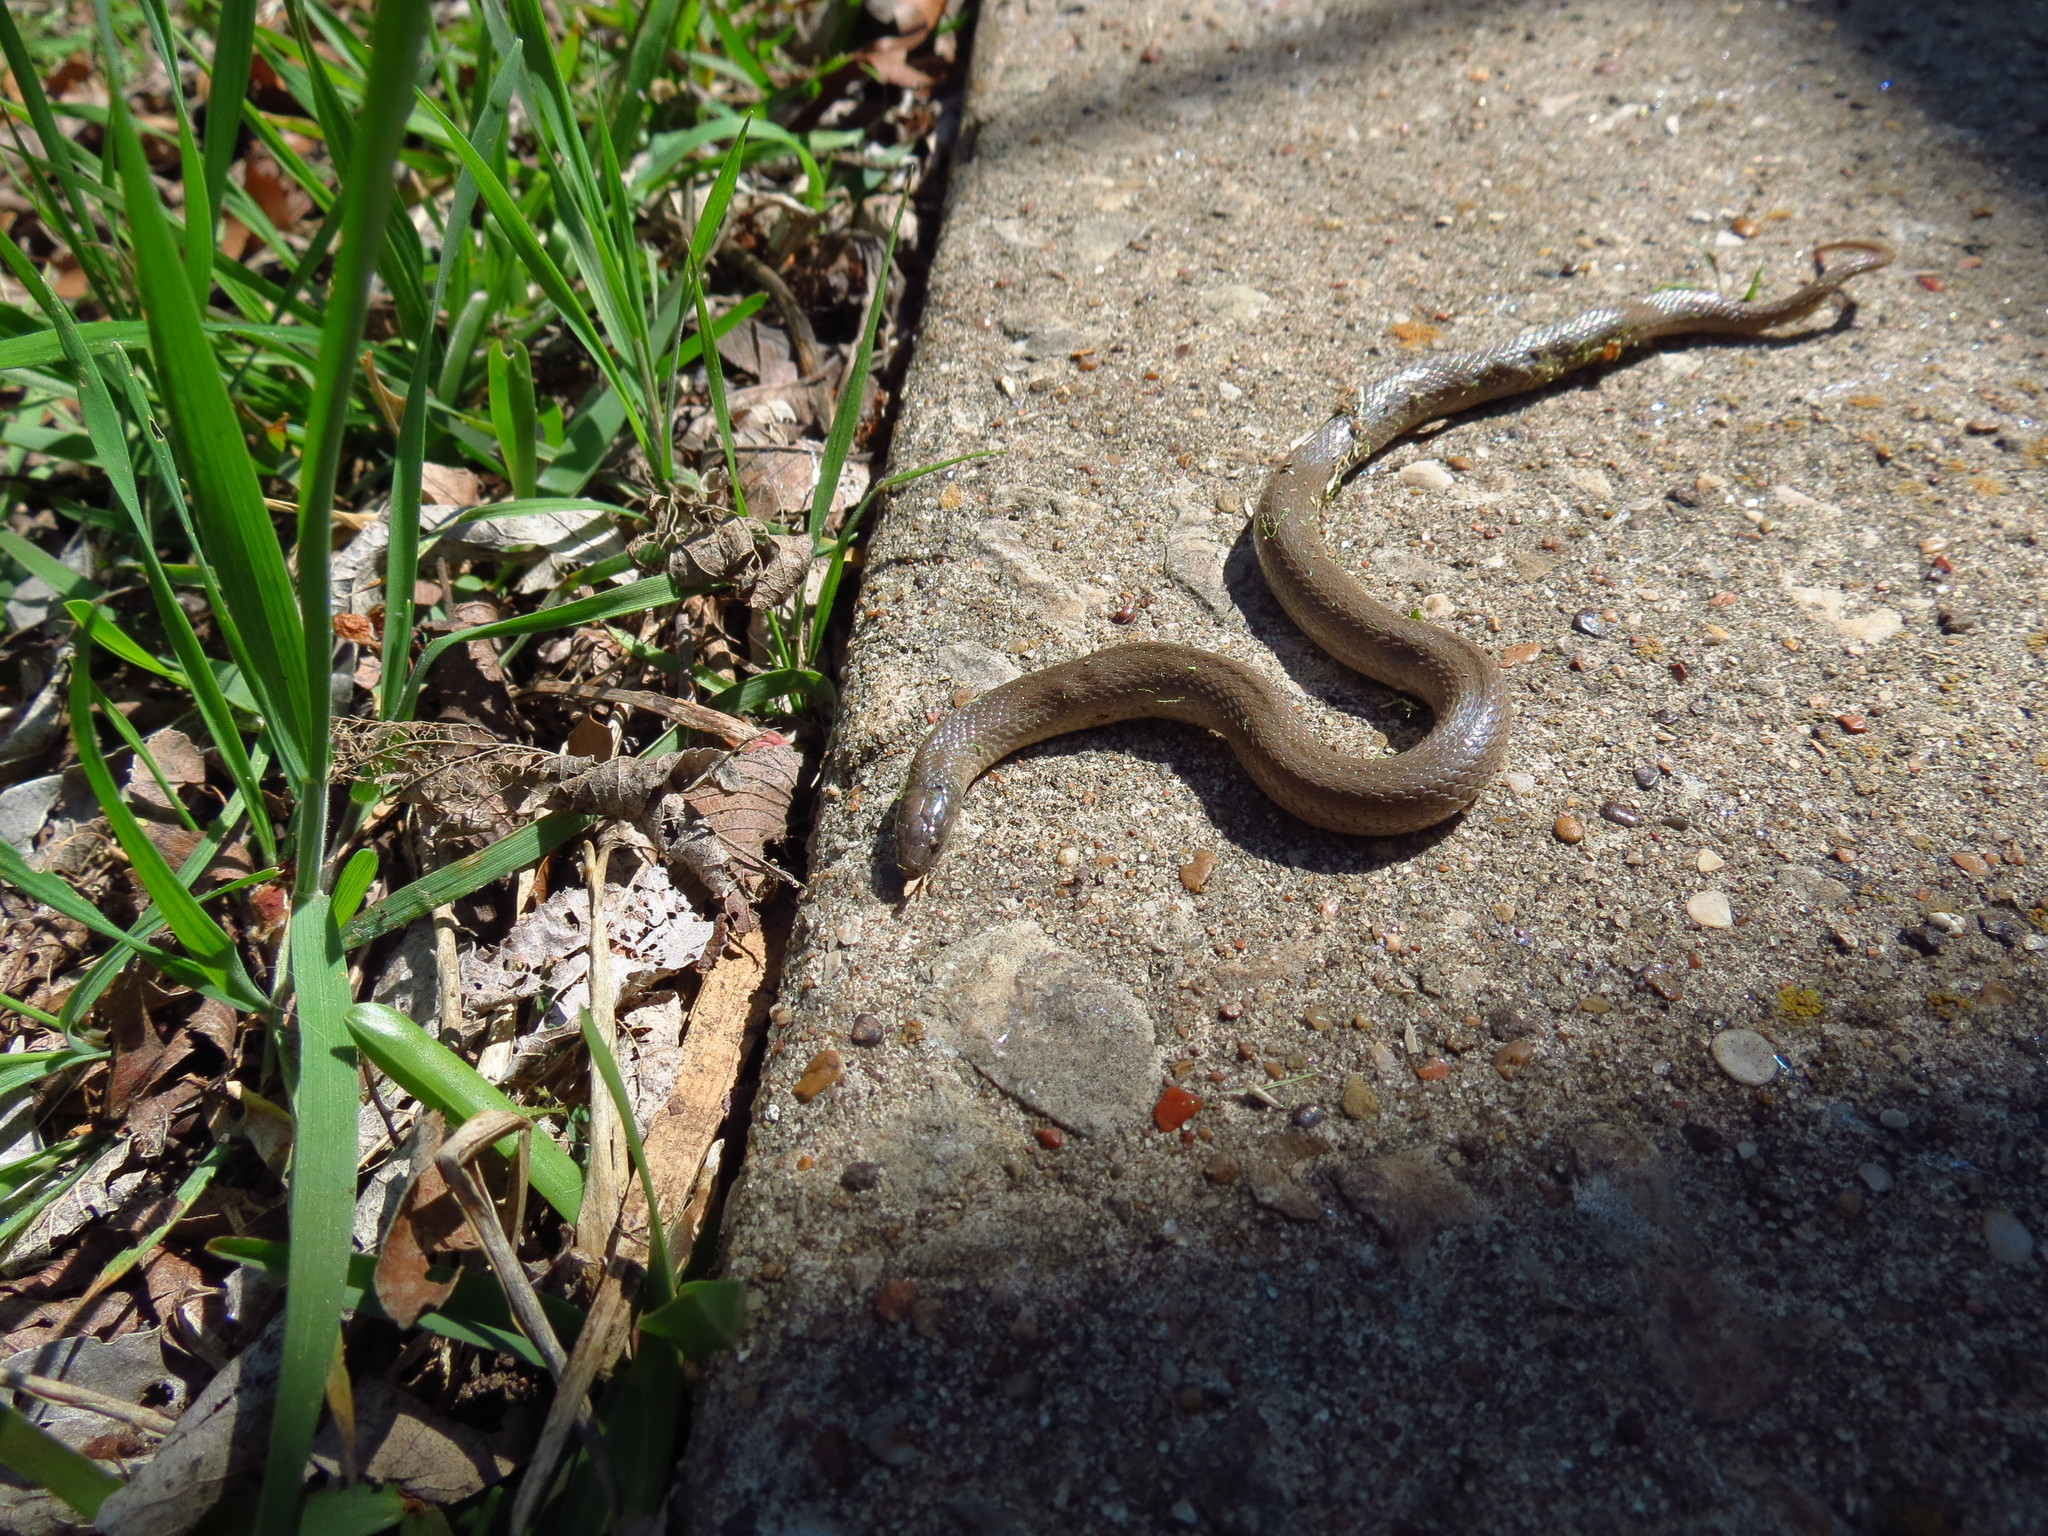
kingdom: Animalia
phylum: Chordata
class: Squamata
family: Colubridae
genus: Haldea
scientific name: Haldea striatula
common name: Rough earth snake
